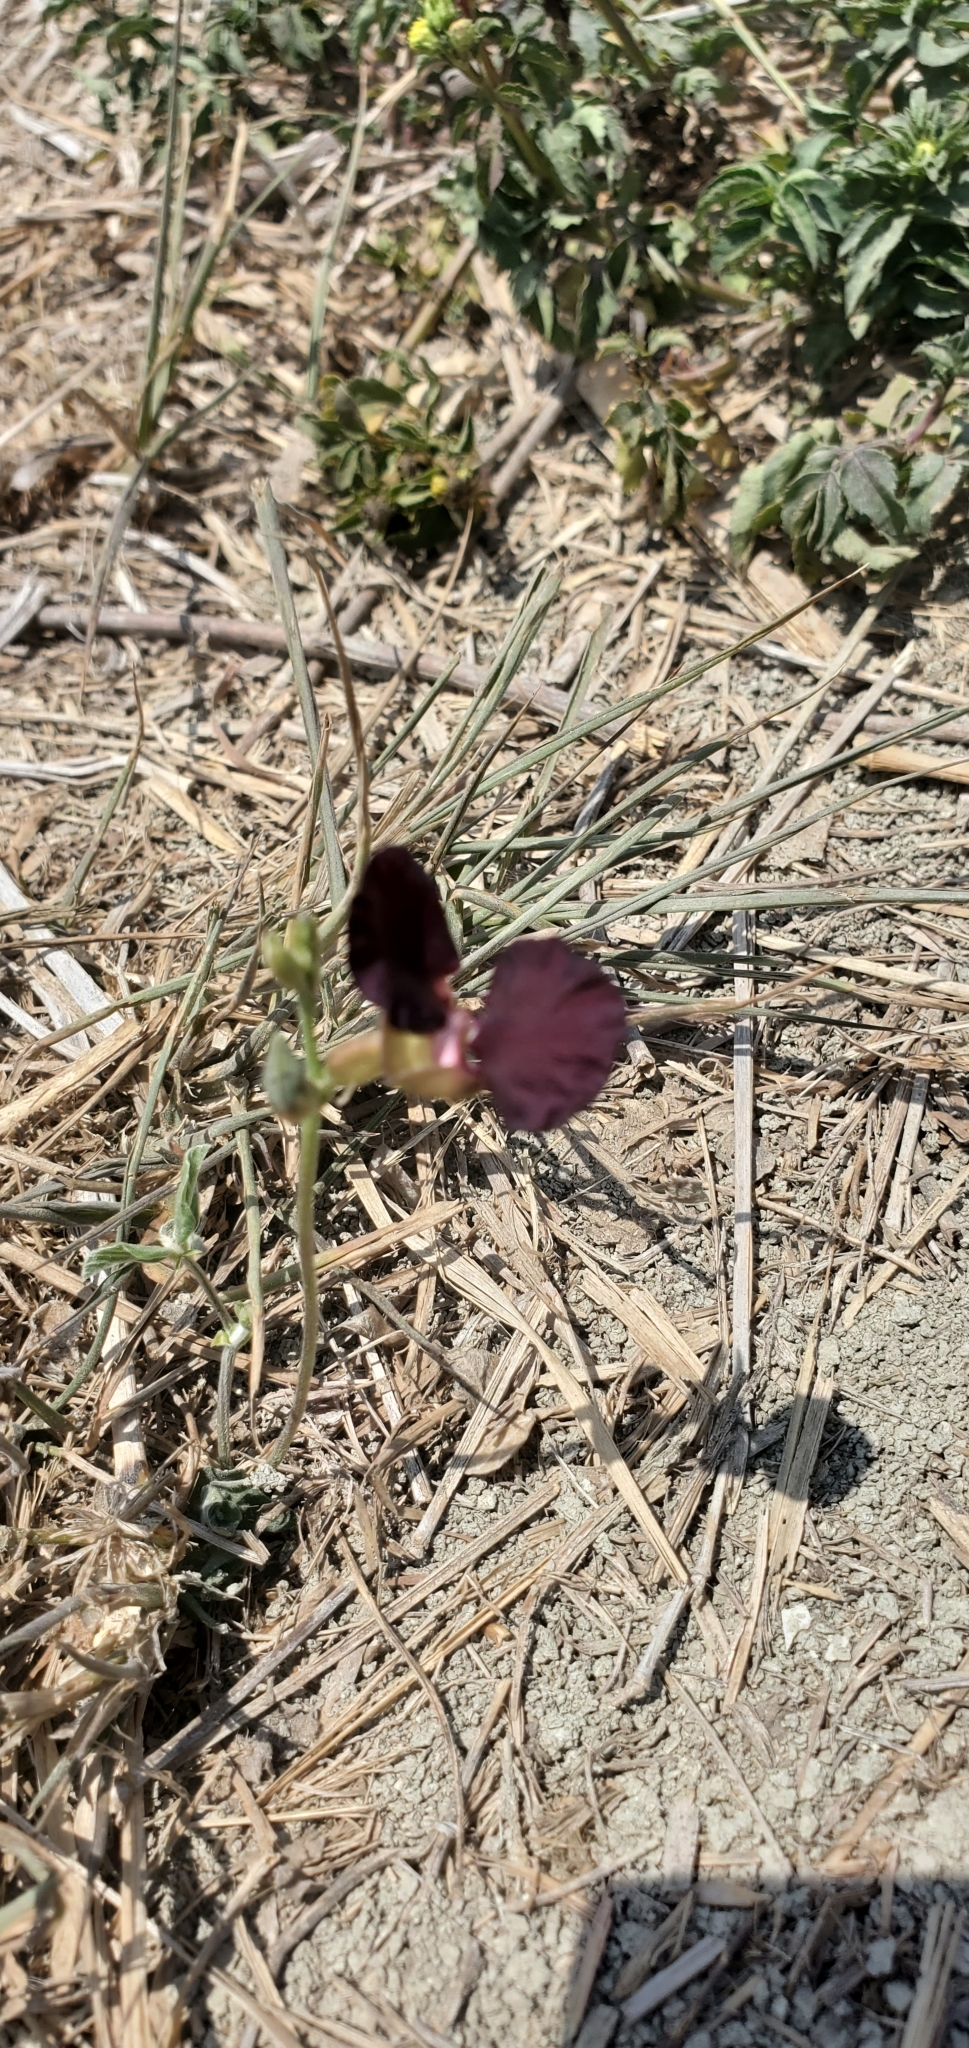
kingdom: Plantae
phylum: Tracheophyta
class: Magnoliopsida
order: Fabales
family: Fabaceae
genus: Macroptilium
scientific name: Macroptilium atropurpureum
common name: Purple bushbean
